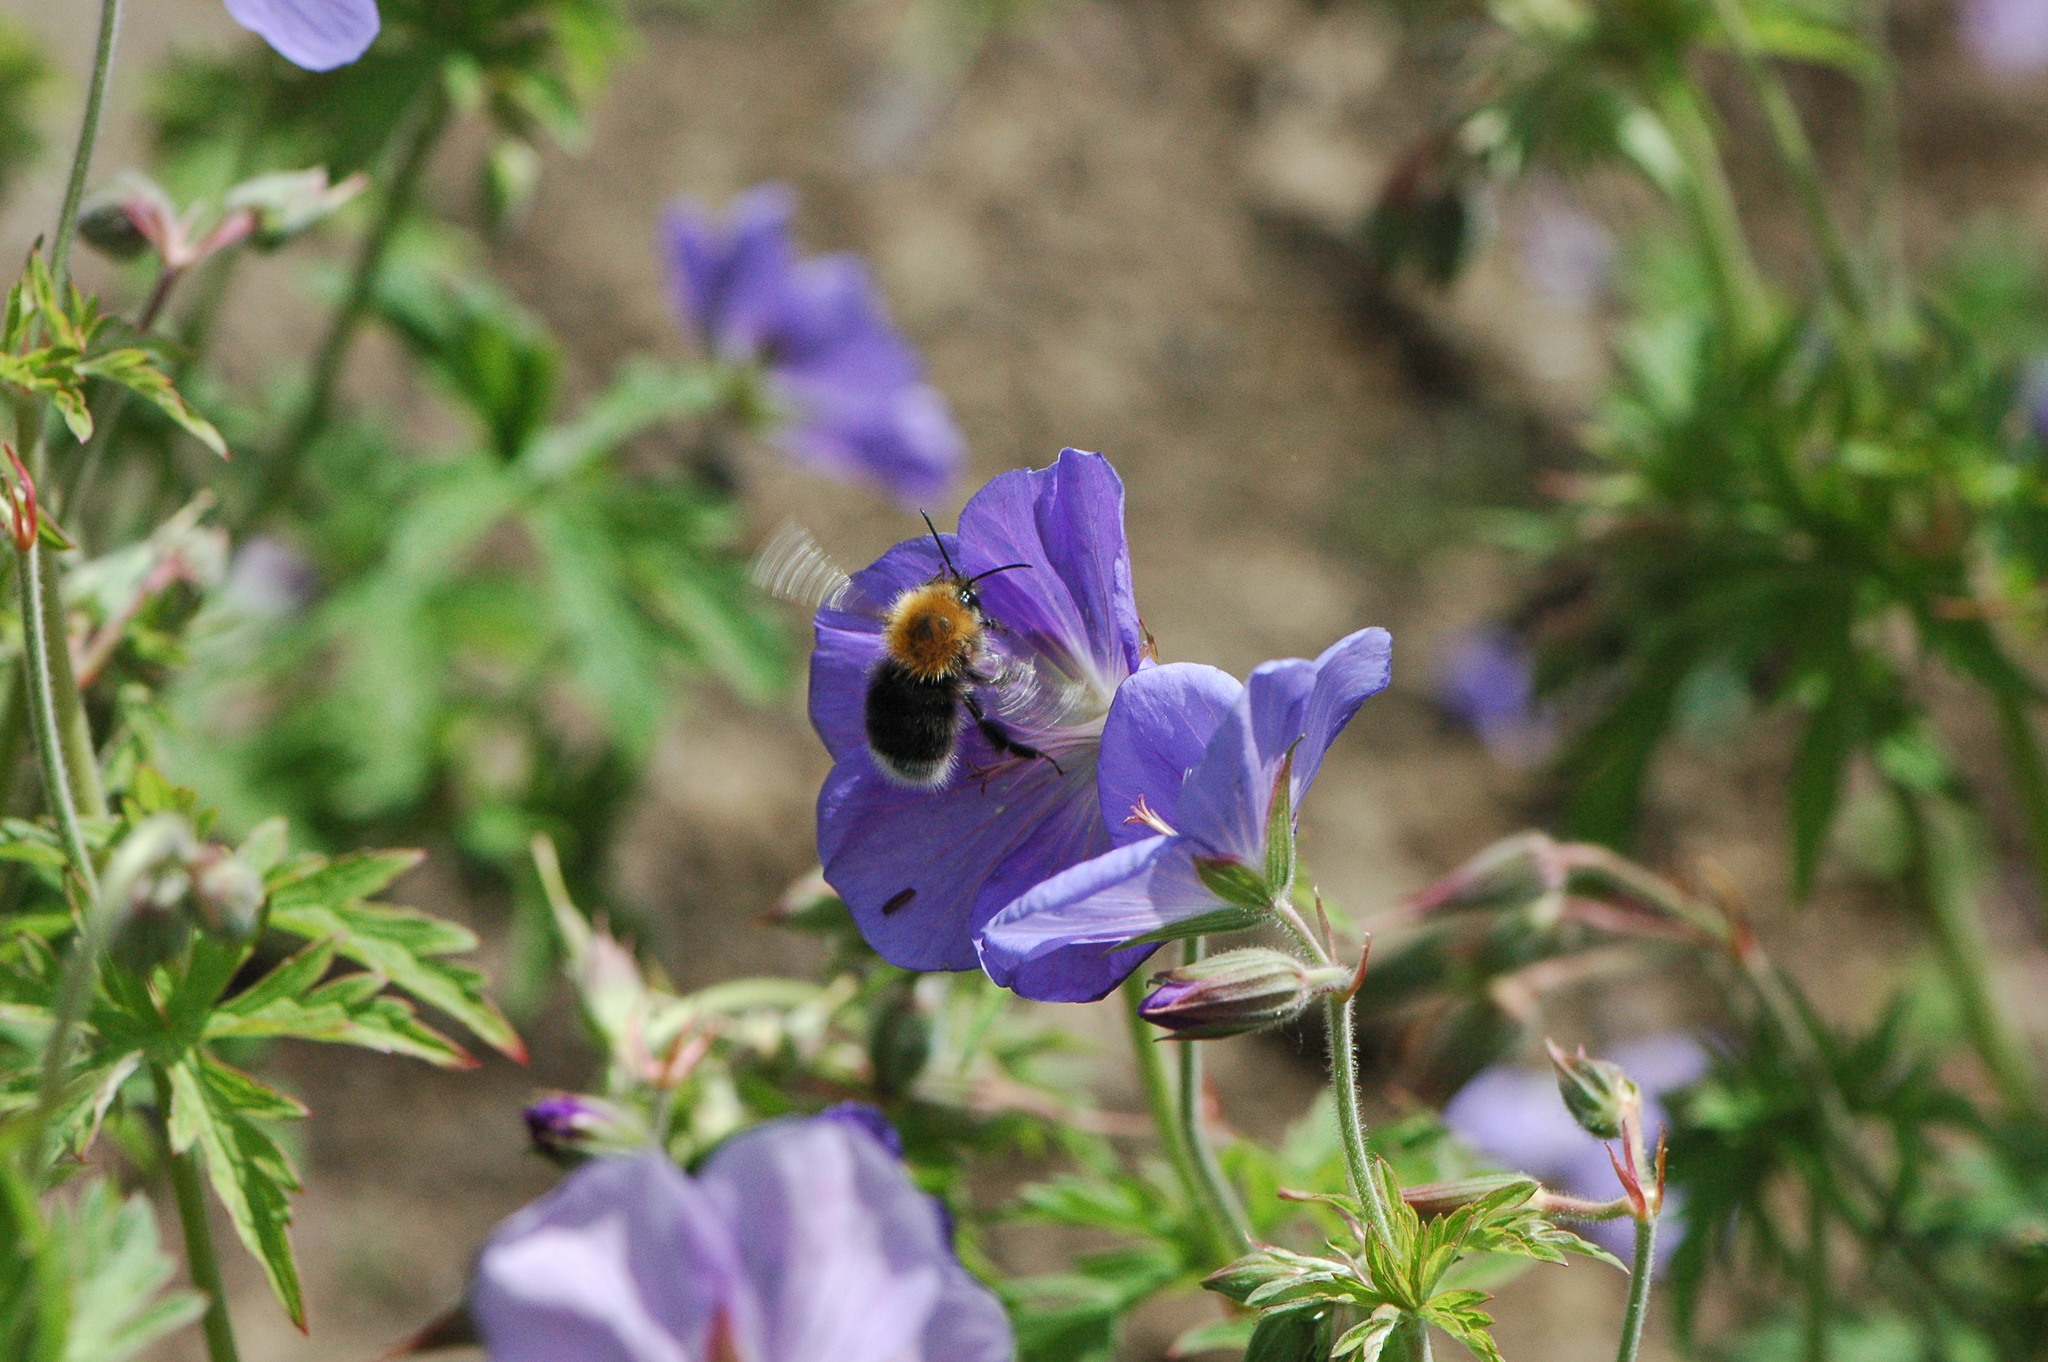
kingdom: Animalia
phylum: Arthropoda
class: Insecta
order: Hymenoptera
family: Apidae
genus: Bombus
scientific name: Bombus hypnorum
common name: New garden bumblebee
